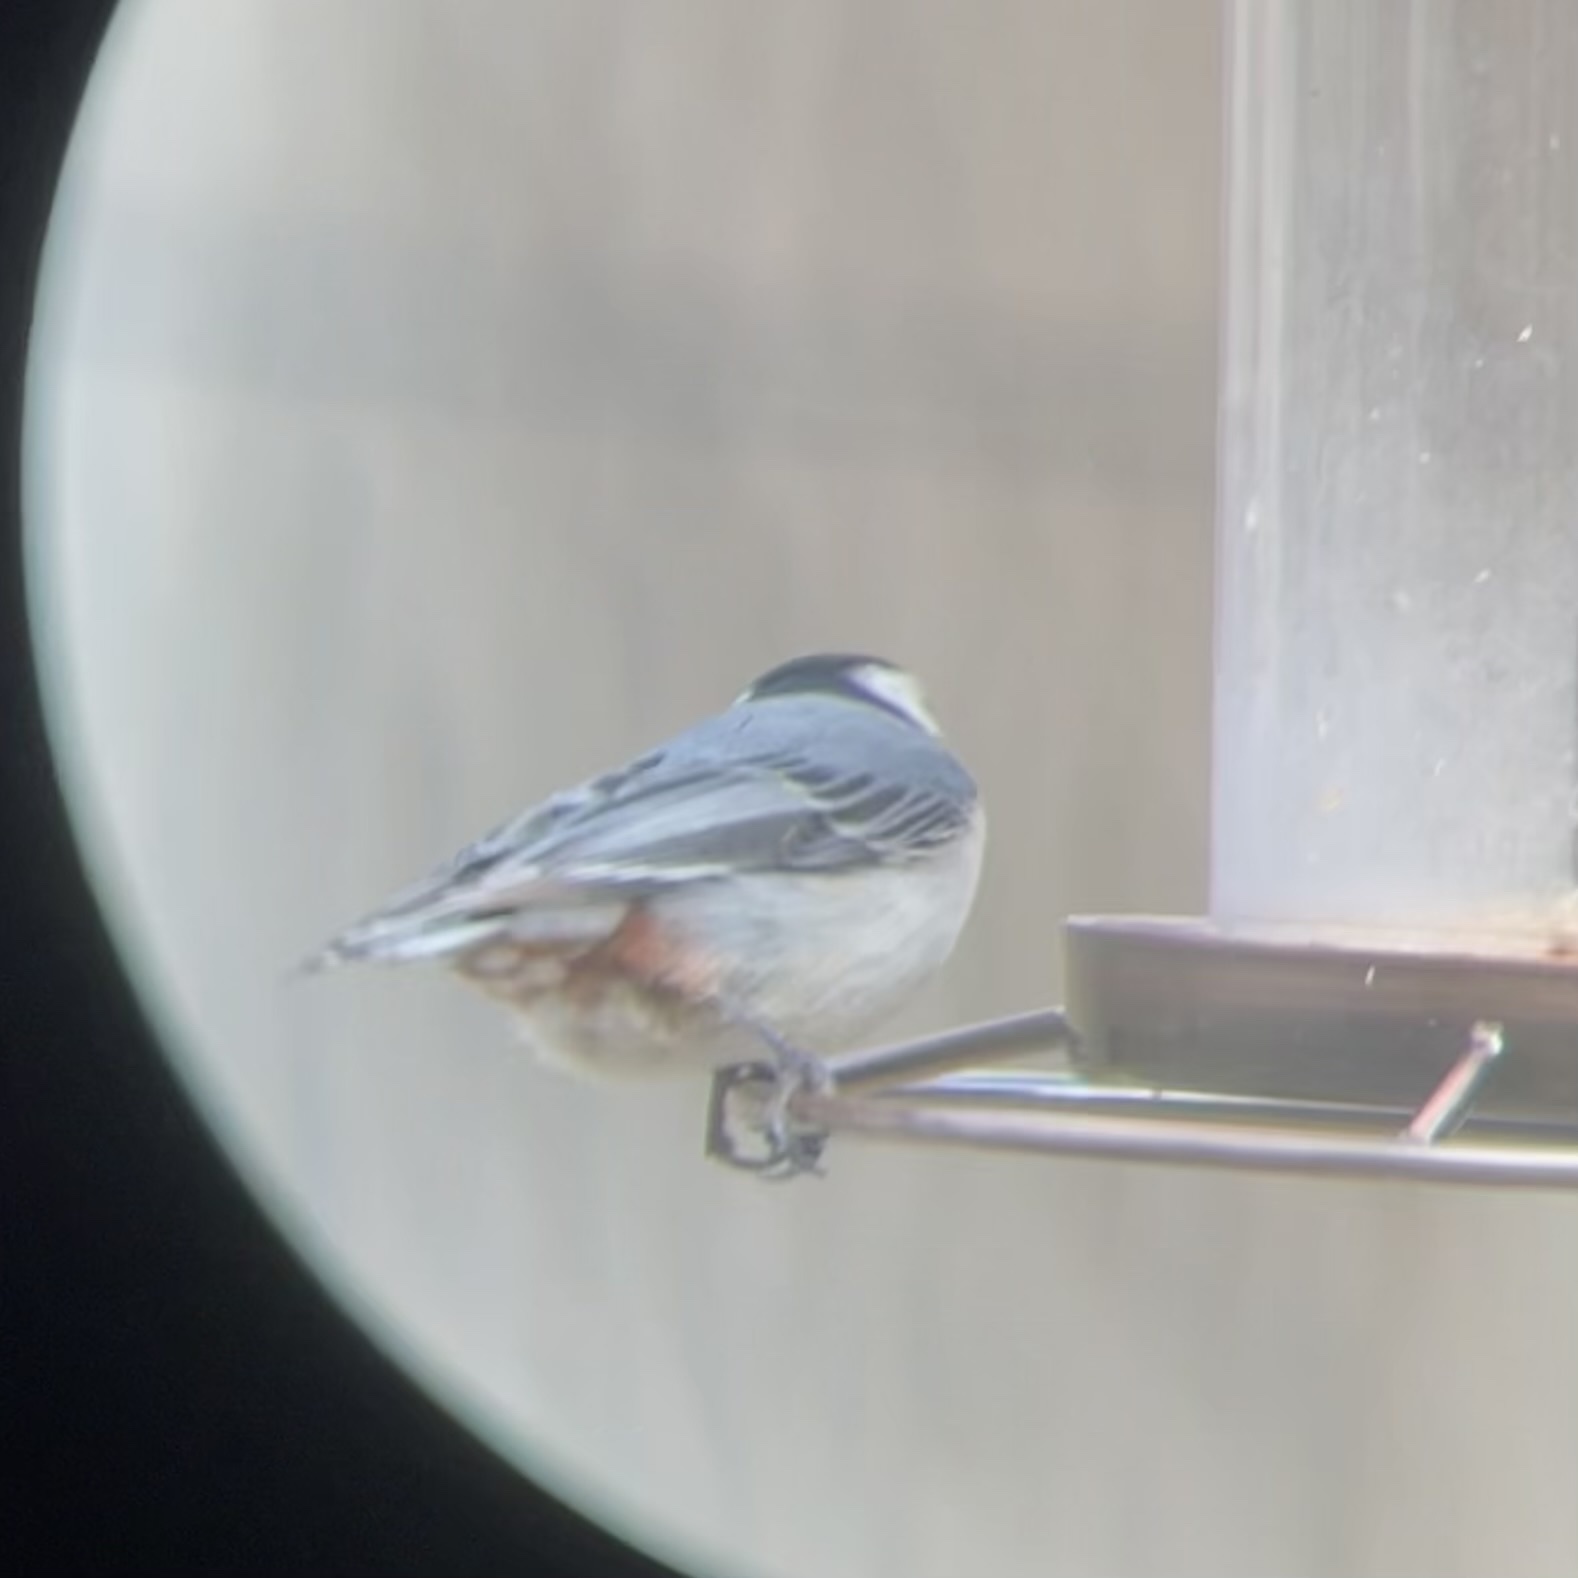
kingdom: Animalia
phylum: Chordata
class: Aves
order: Passeriformes
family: Sittidae
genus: Sitta
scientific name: Sitta carolinensis
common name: White-breasted nuthatch
